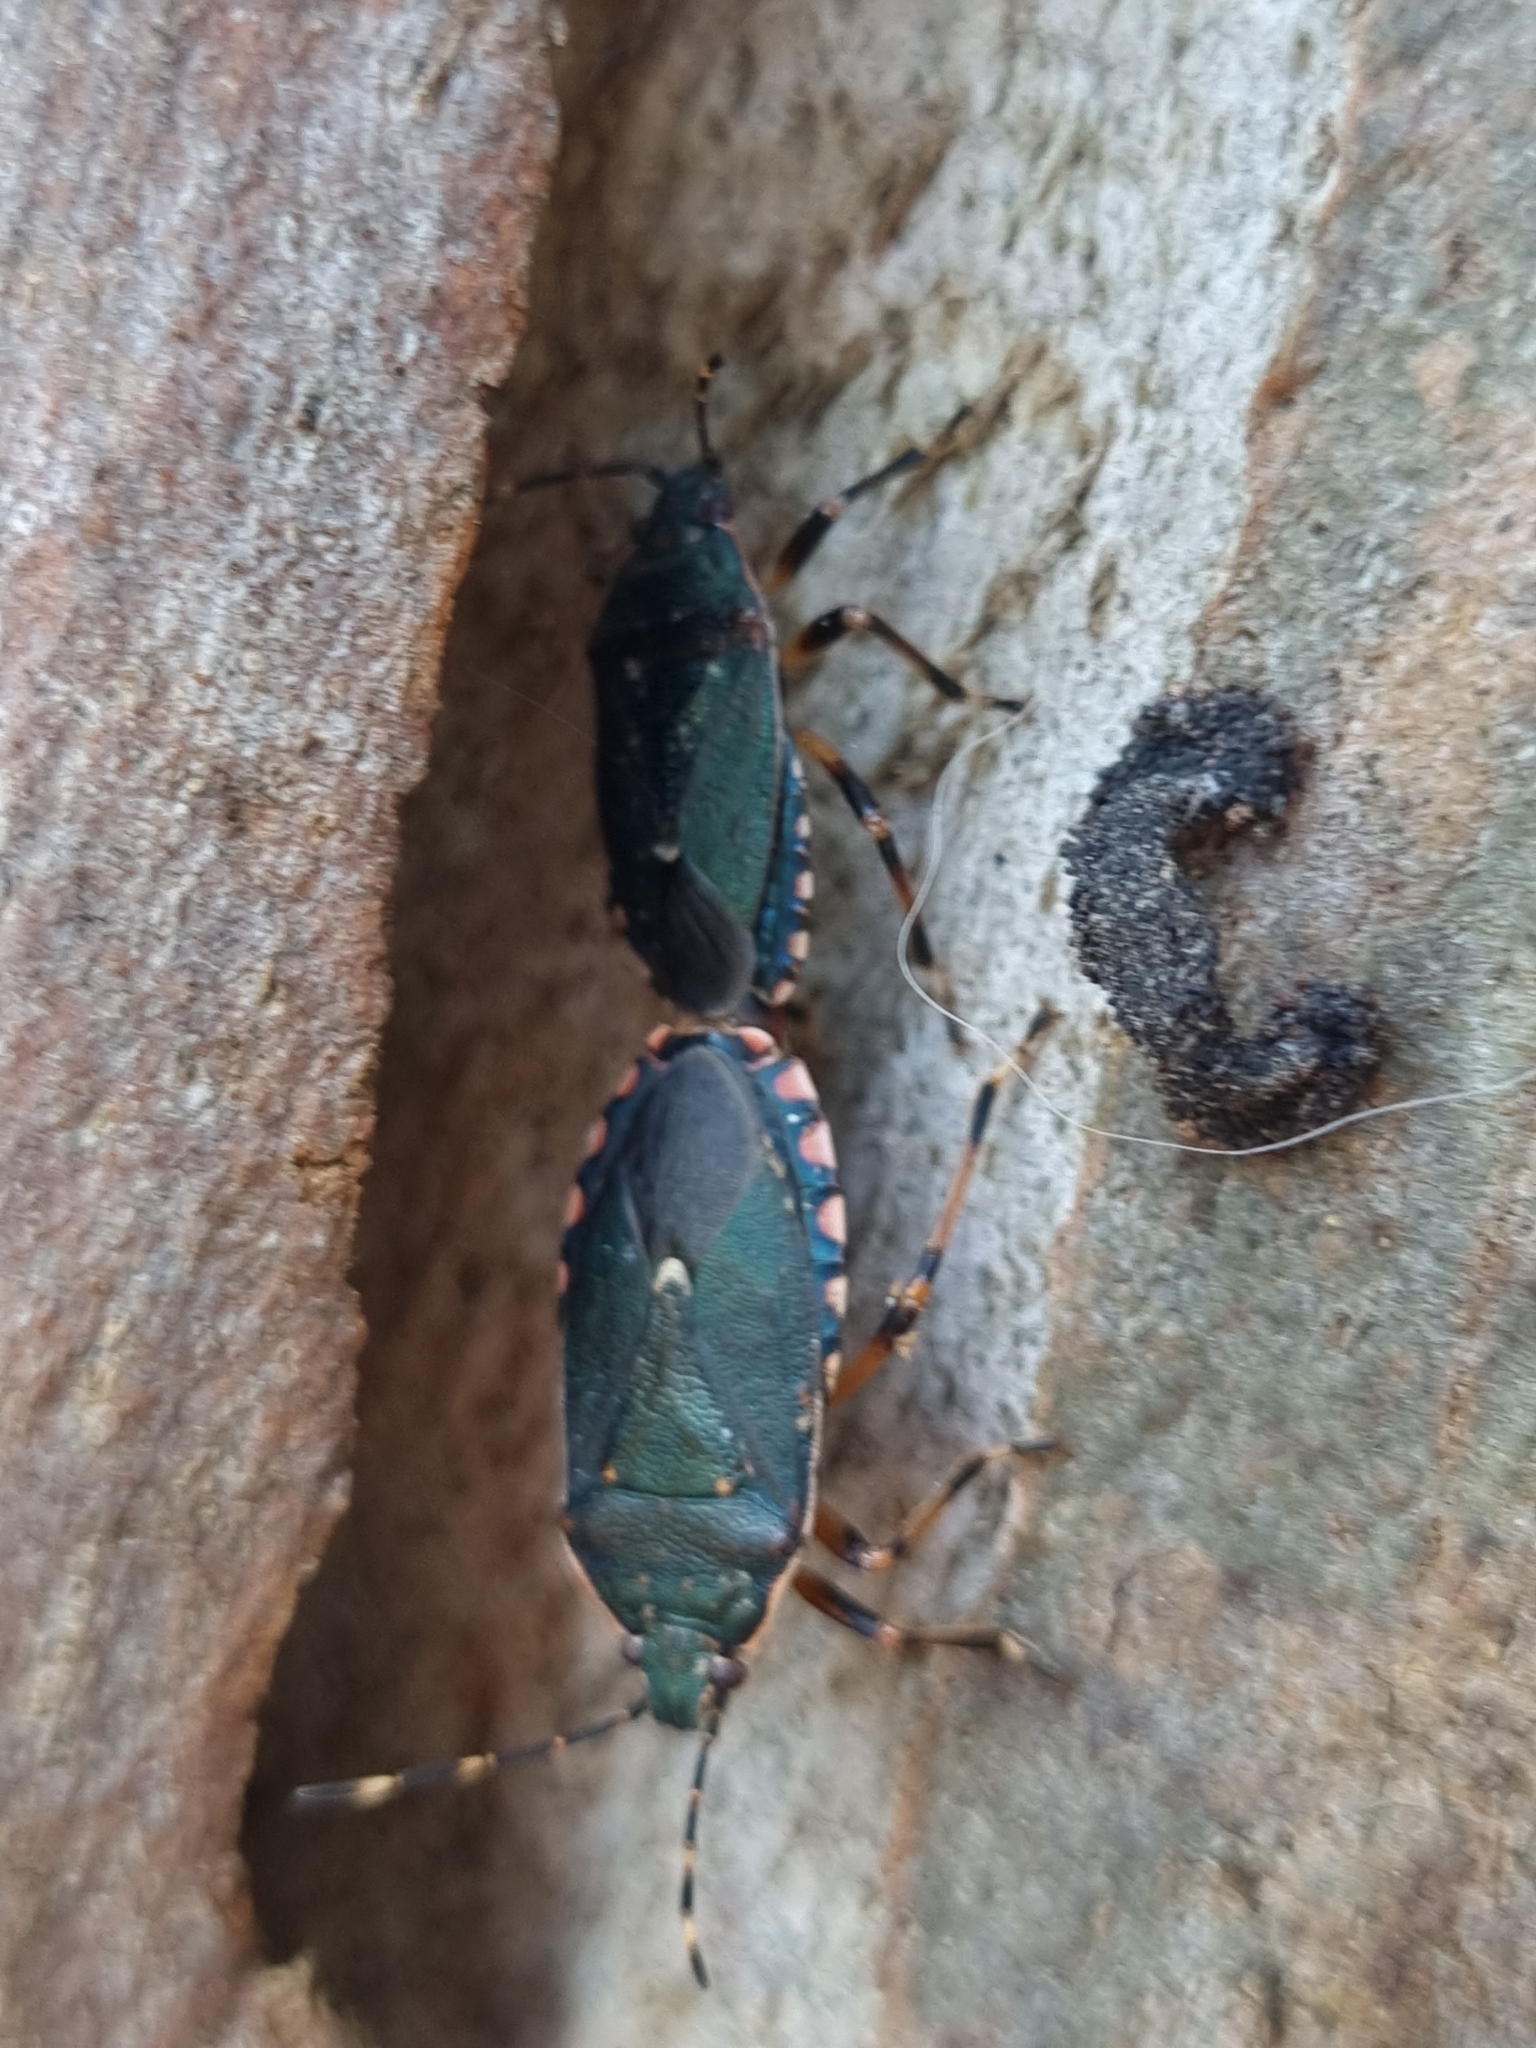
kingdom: Animalia
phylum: Arthropoda
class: Insecta
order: Hemiptera
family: Pentatomidae
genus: Notius
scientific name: Notius
